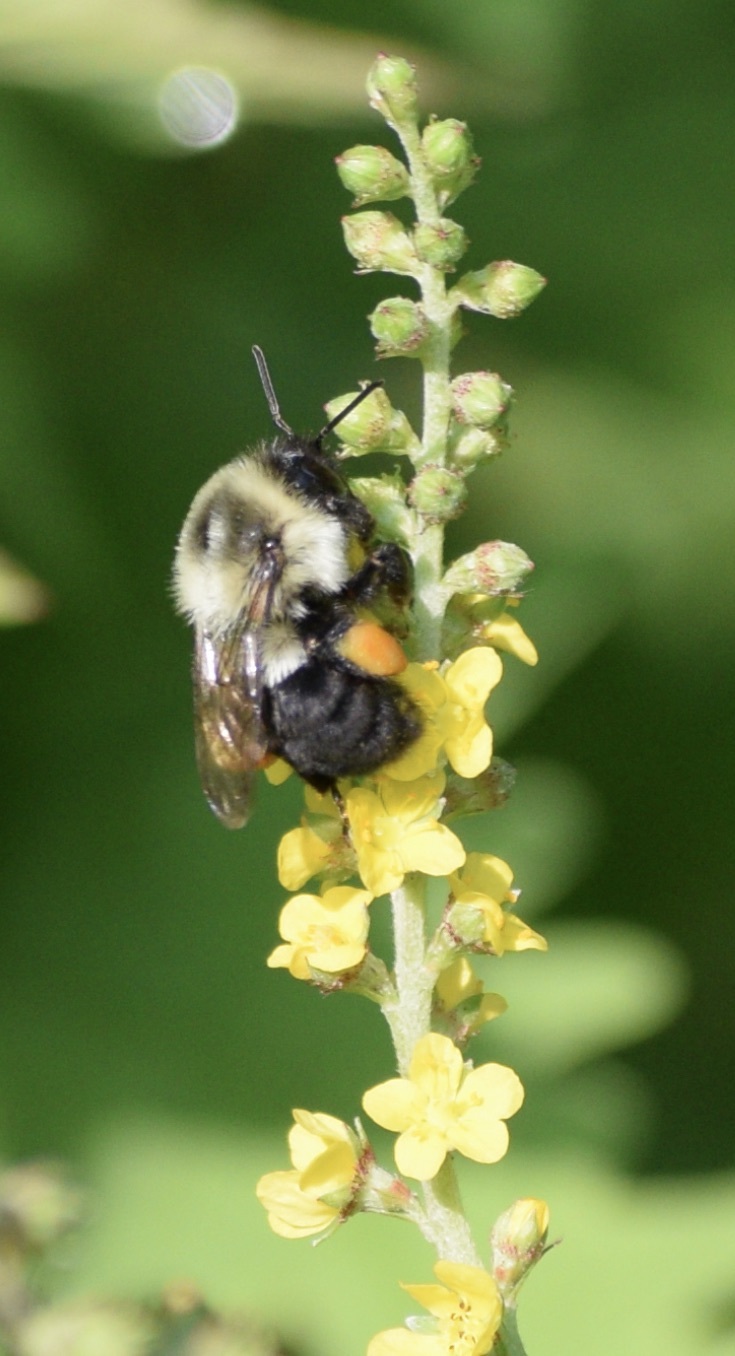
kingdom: Animalia
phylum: Arthropoda
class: Insecta
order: Hymenoptera
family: Apidae
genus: Bombus
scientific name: Bombus impatiens
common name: Common eastern bumble bee
